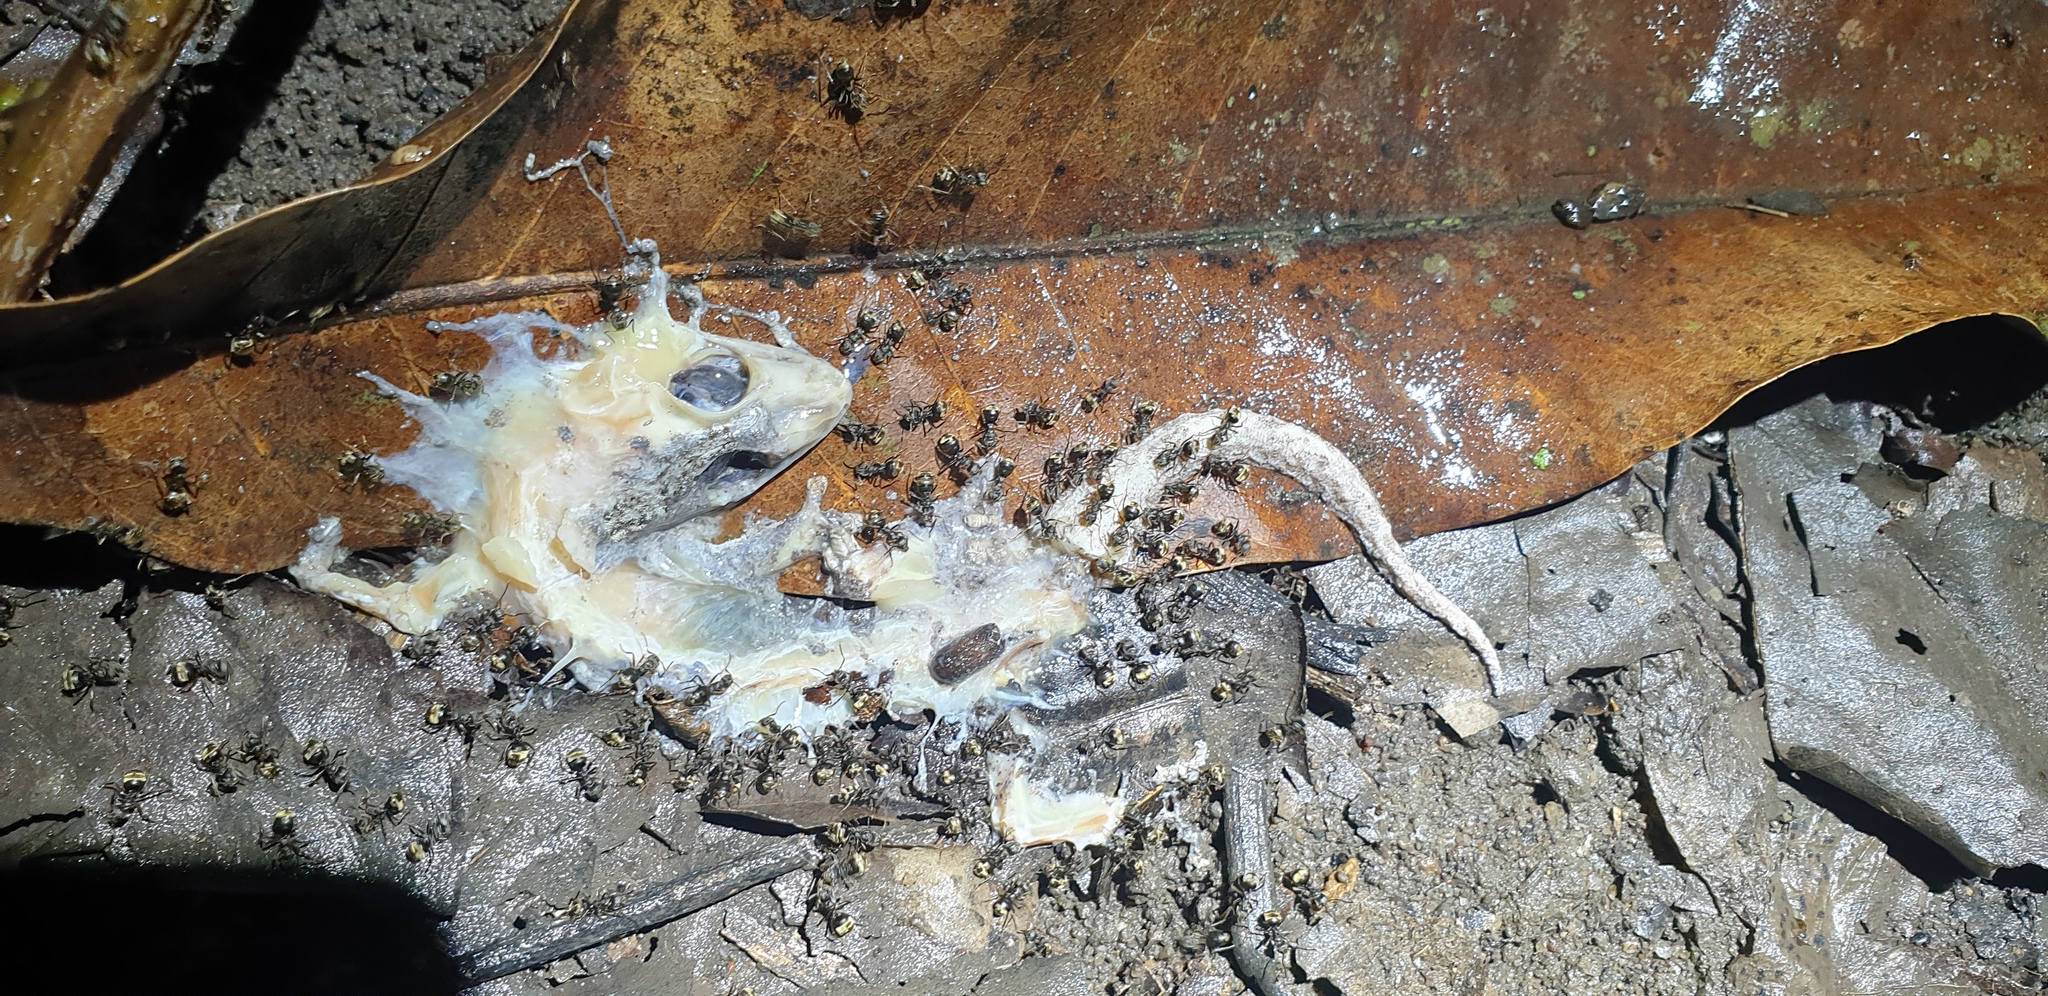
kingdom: Animalia
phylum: Chordata
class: Squamata
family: Phyllodactylidae
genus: Thecadactylus
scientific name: Thecadactylus rapicauda
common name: Turnip-tailed gecko
